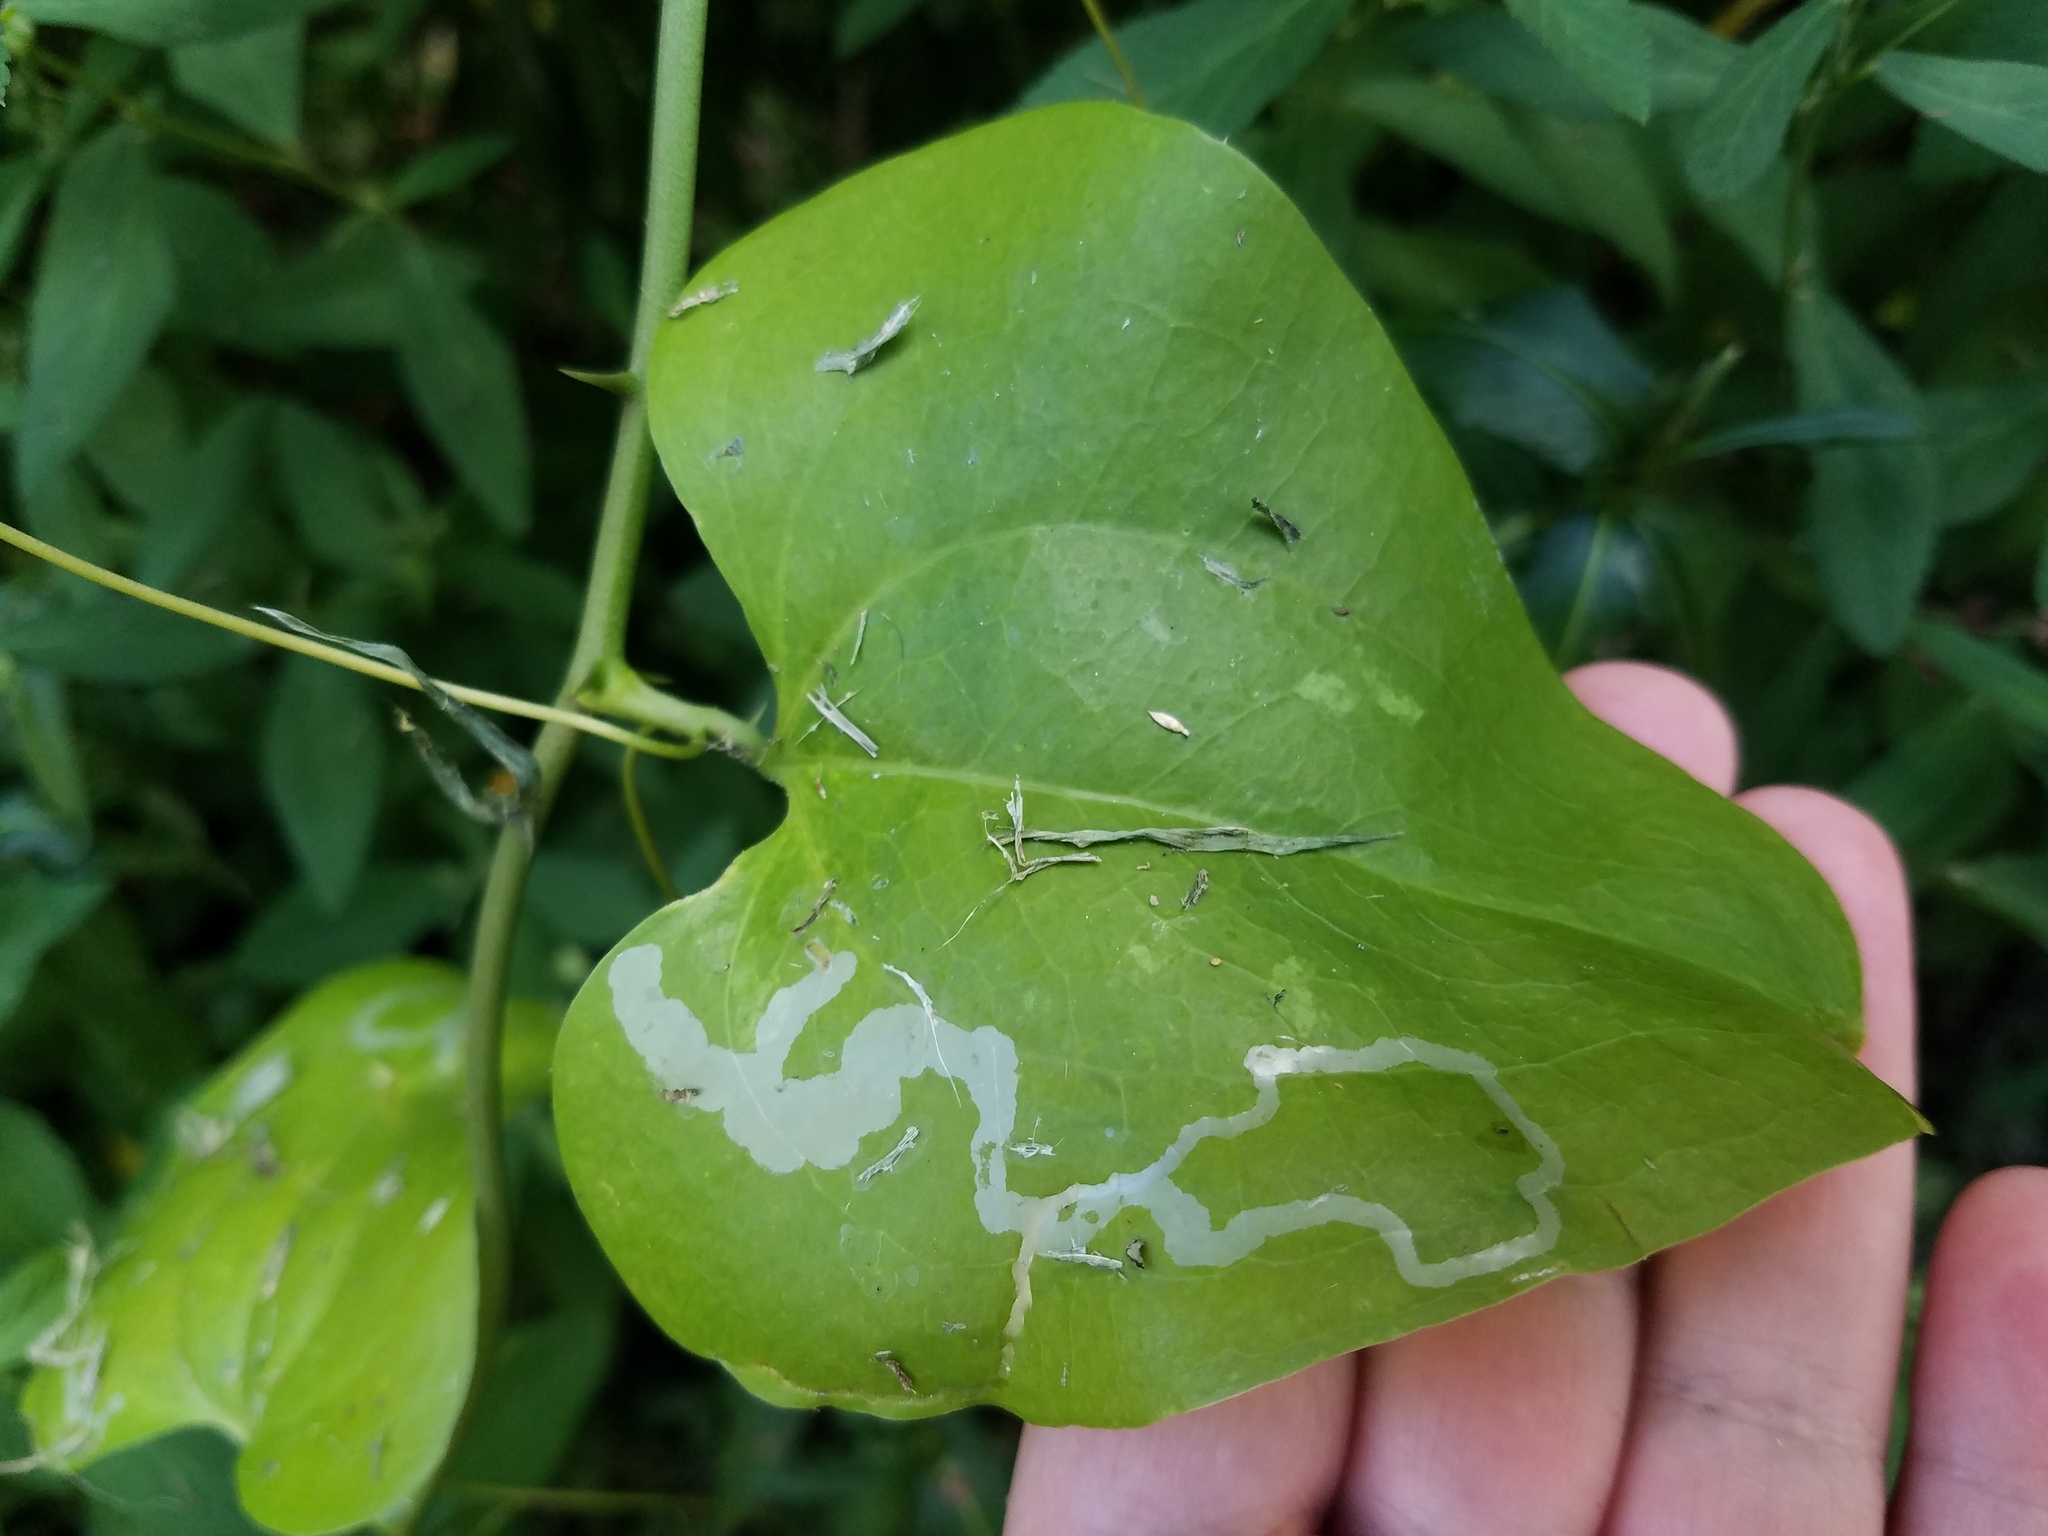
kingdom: Animalia
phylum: Arthropoda
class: Insecta
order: Diptera
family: Agromyzidae
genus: Liriomyza
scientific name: Liriomyza schmidti
